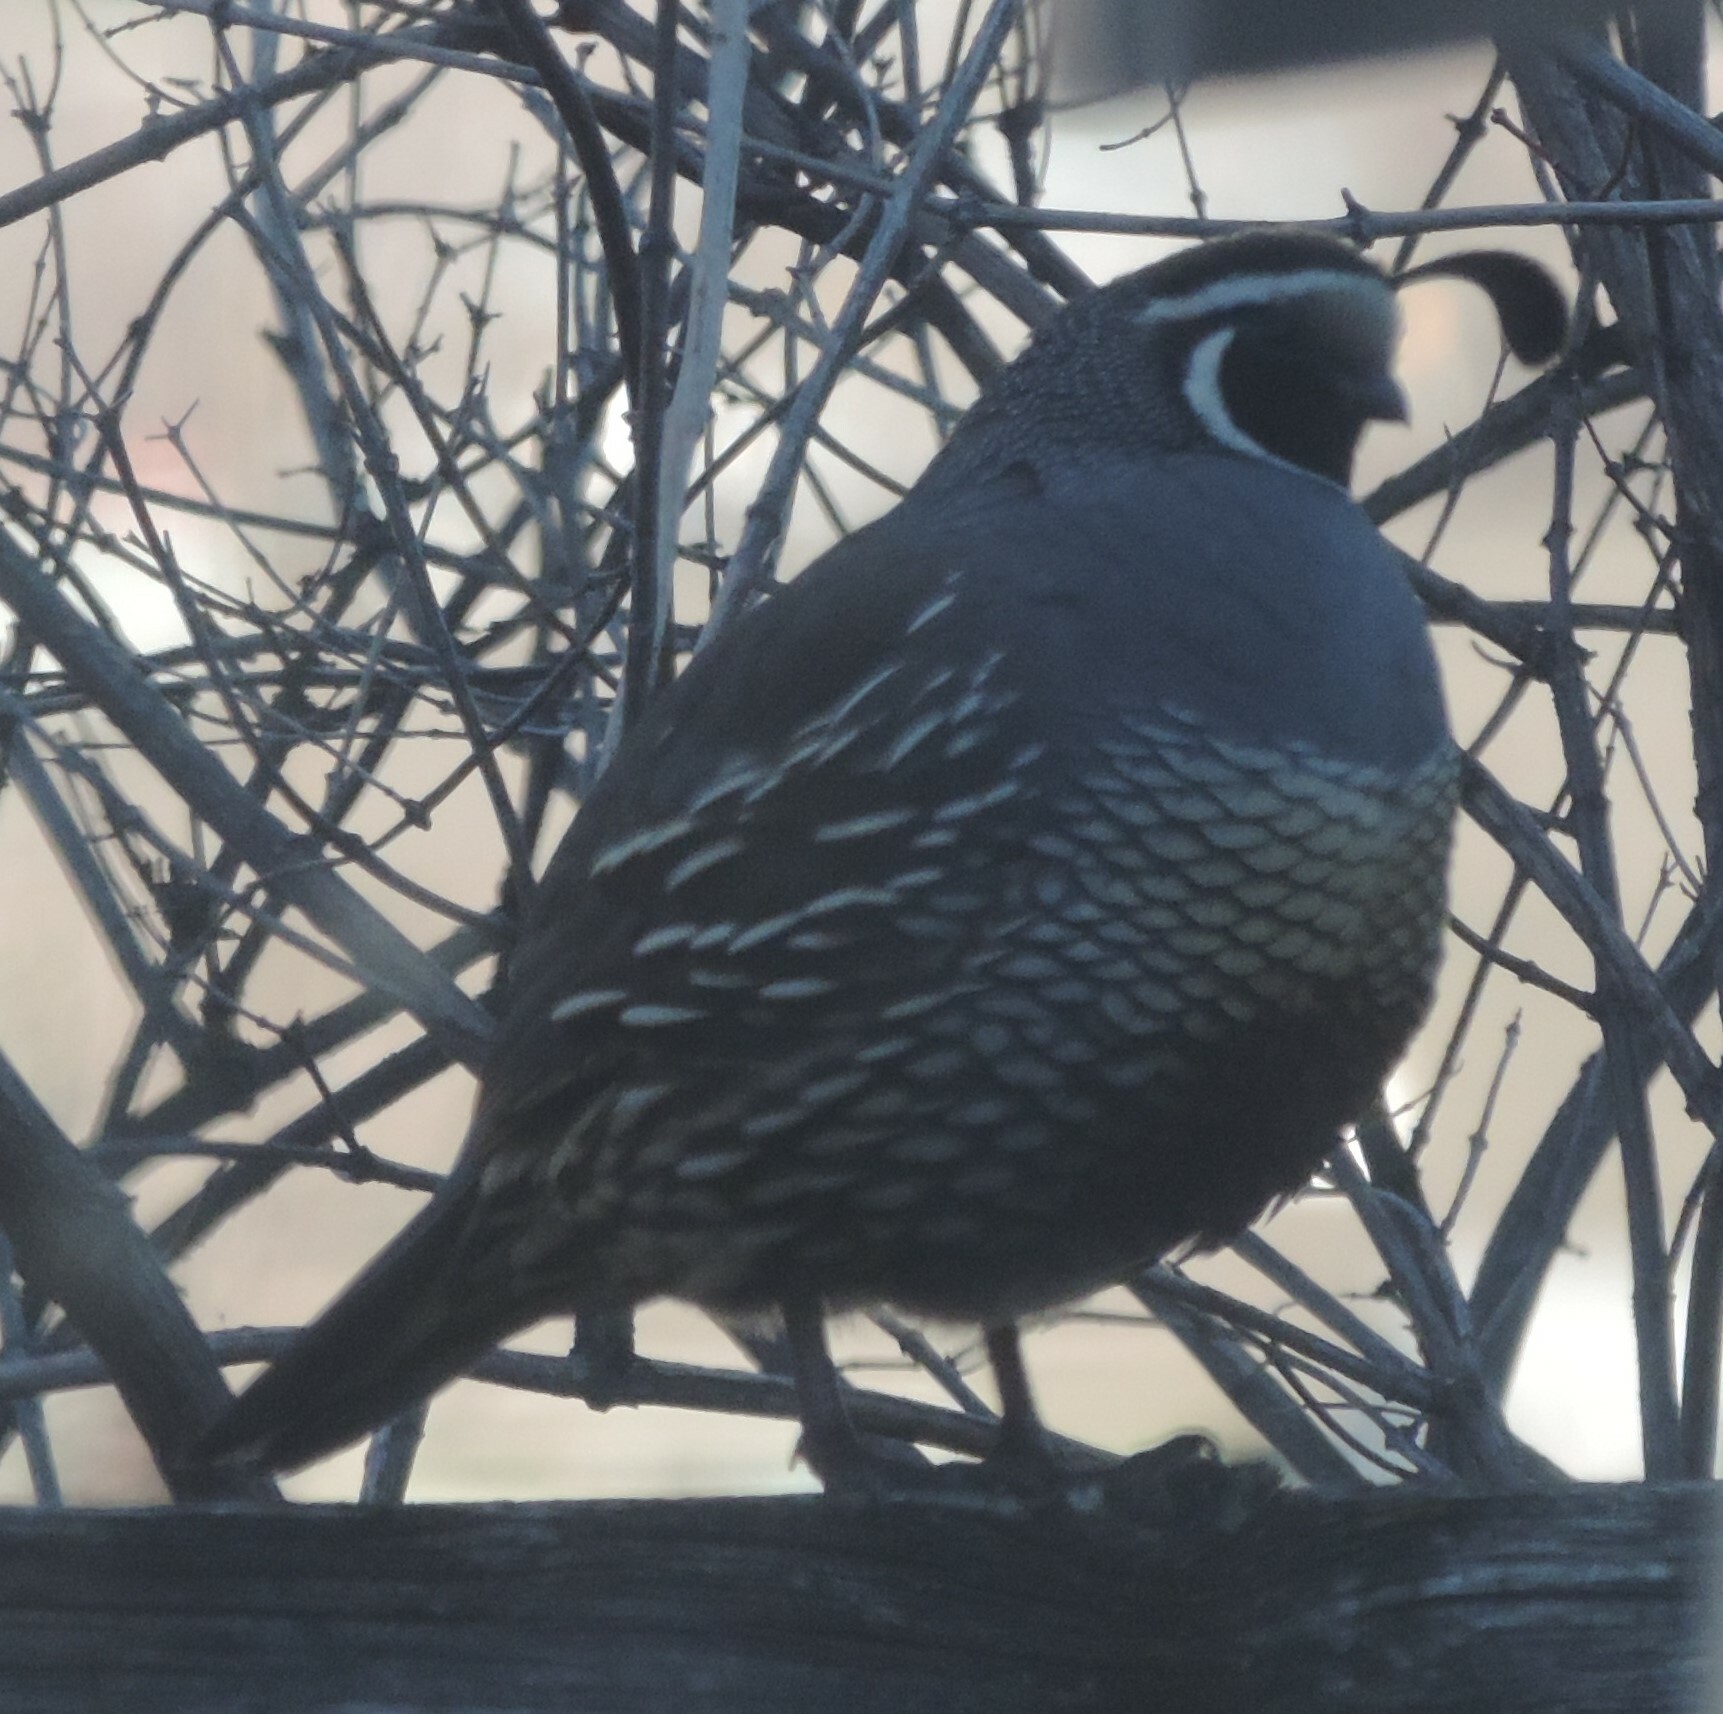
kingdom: Animalia
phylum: Chordata
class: Aves
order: Galliformes
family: Odontophoridae
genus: Callipepla
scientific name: Callipepla californica
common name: California quail
